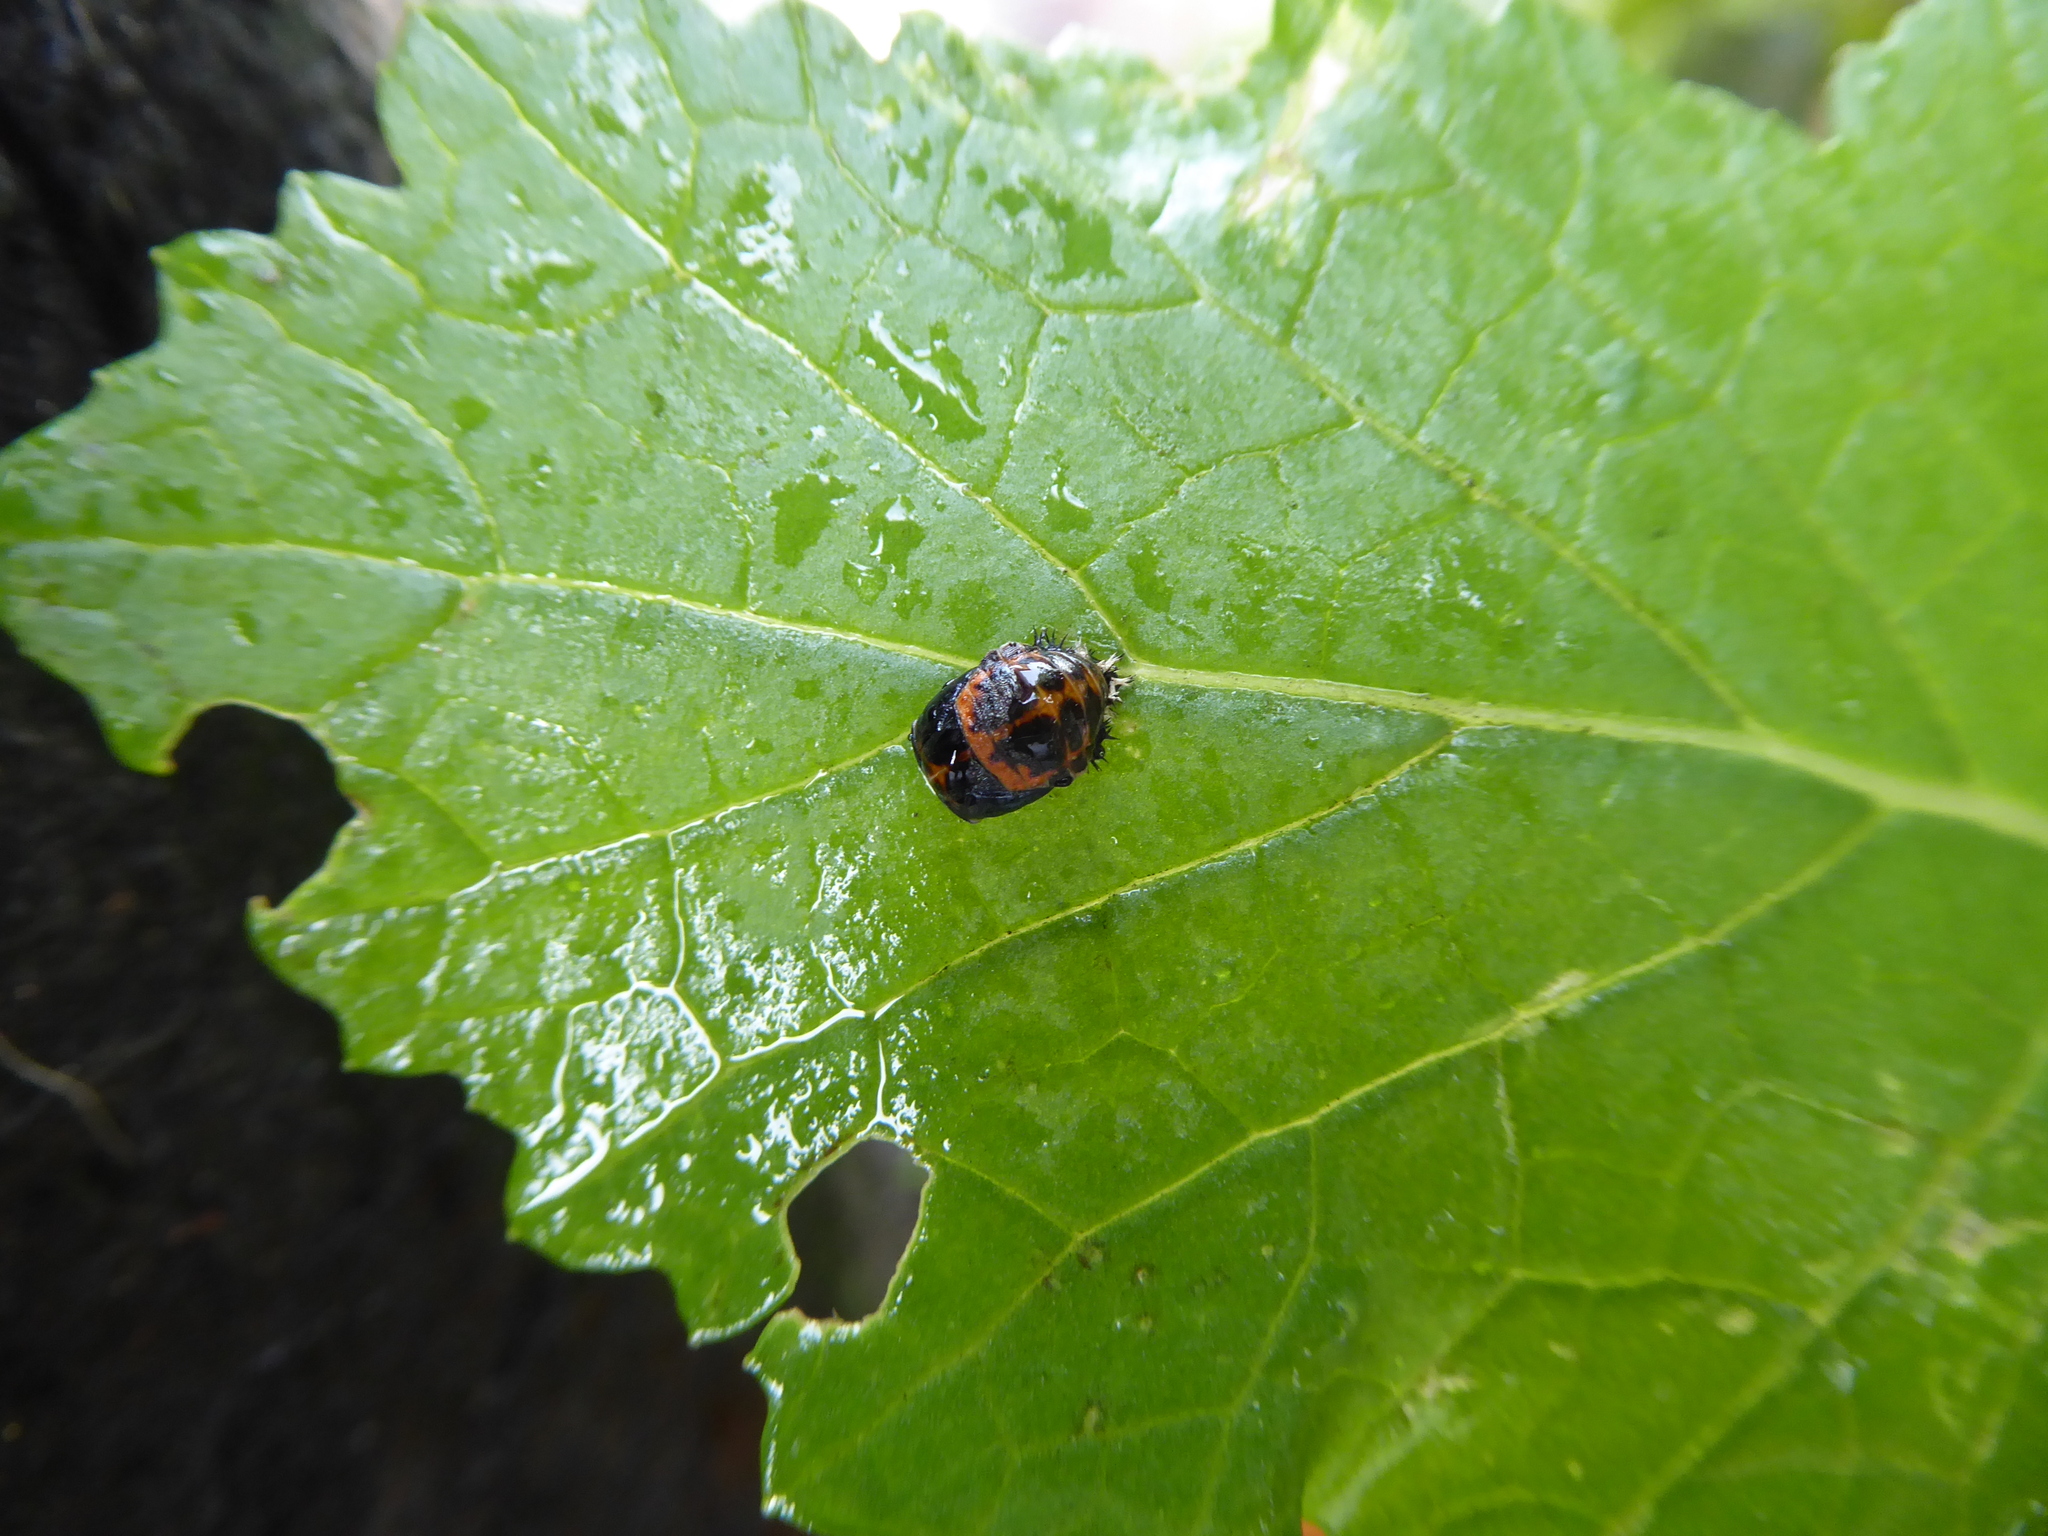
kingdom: Animalia
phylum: Arthropoda
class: Insecta
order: Coleoptera
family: Coccinellidae
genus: Harmonia
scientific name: Harmonia axyridis
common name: Harlequin ladybird
